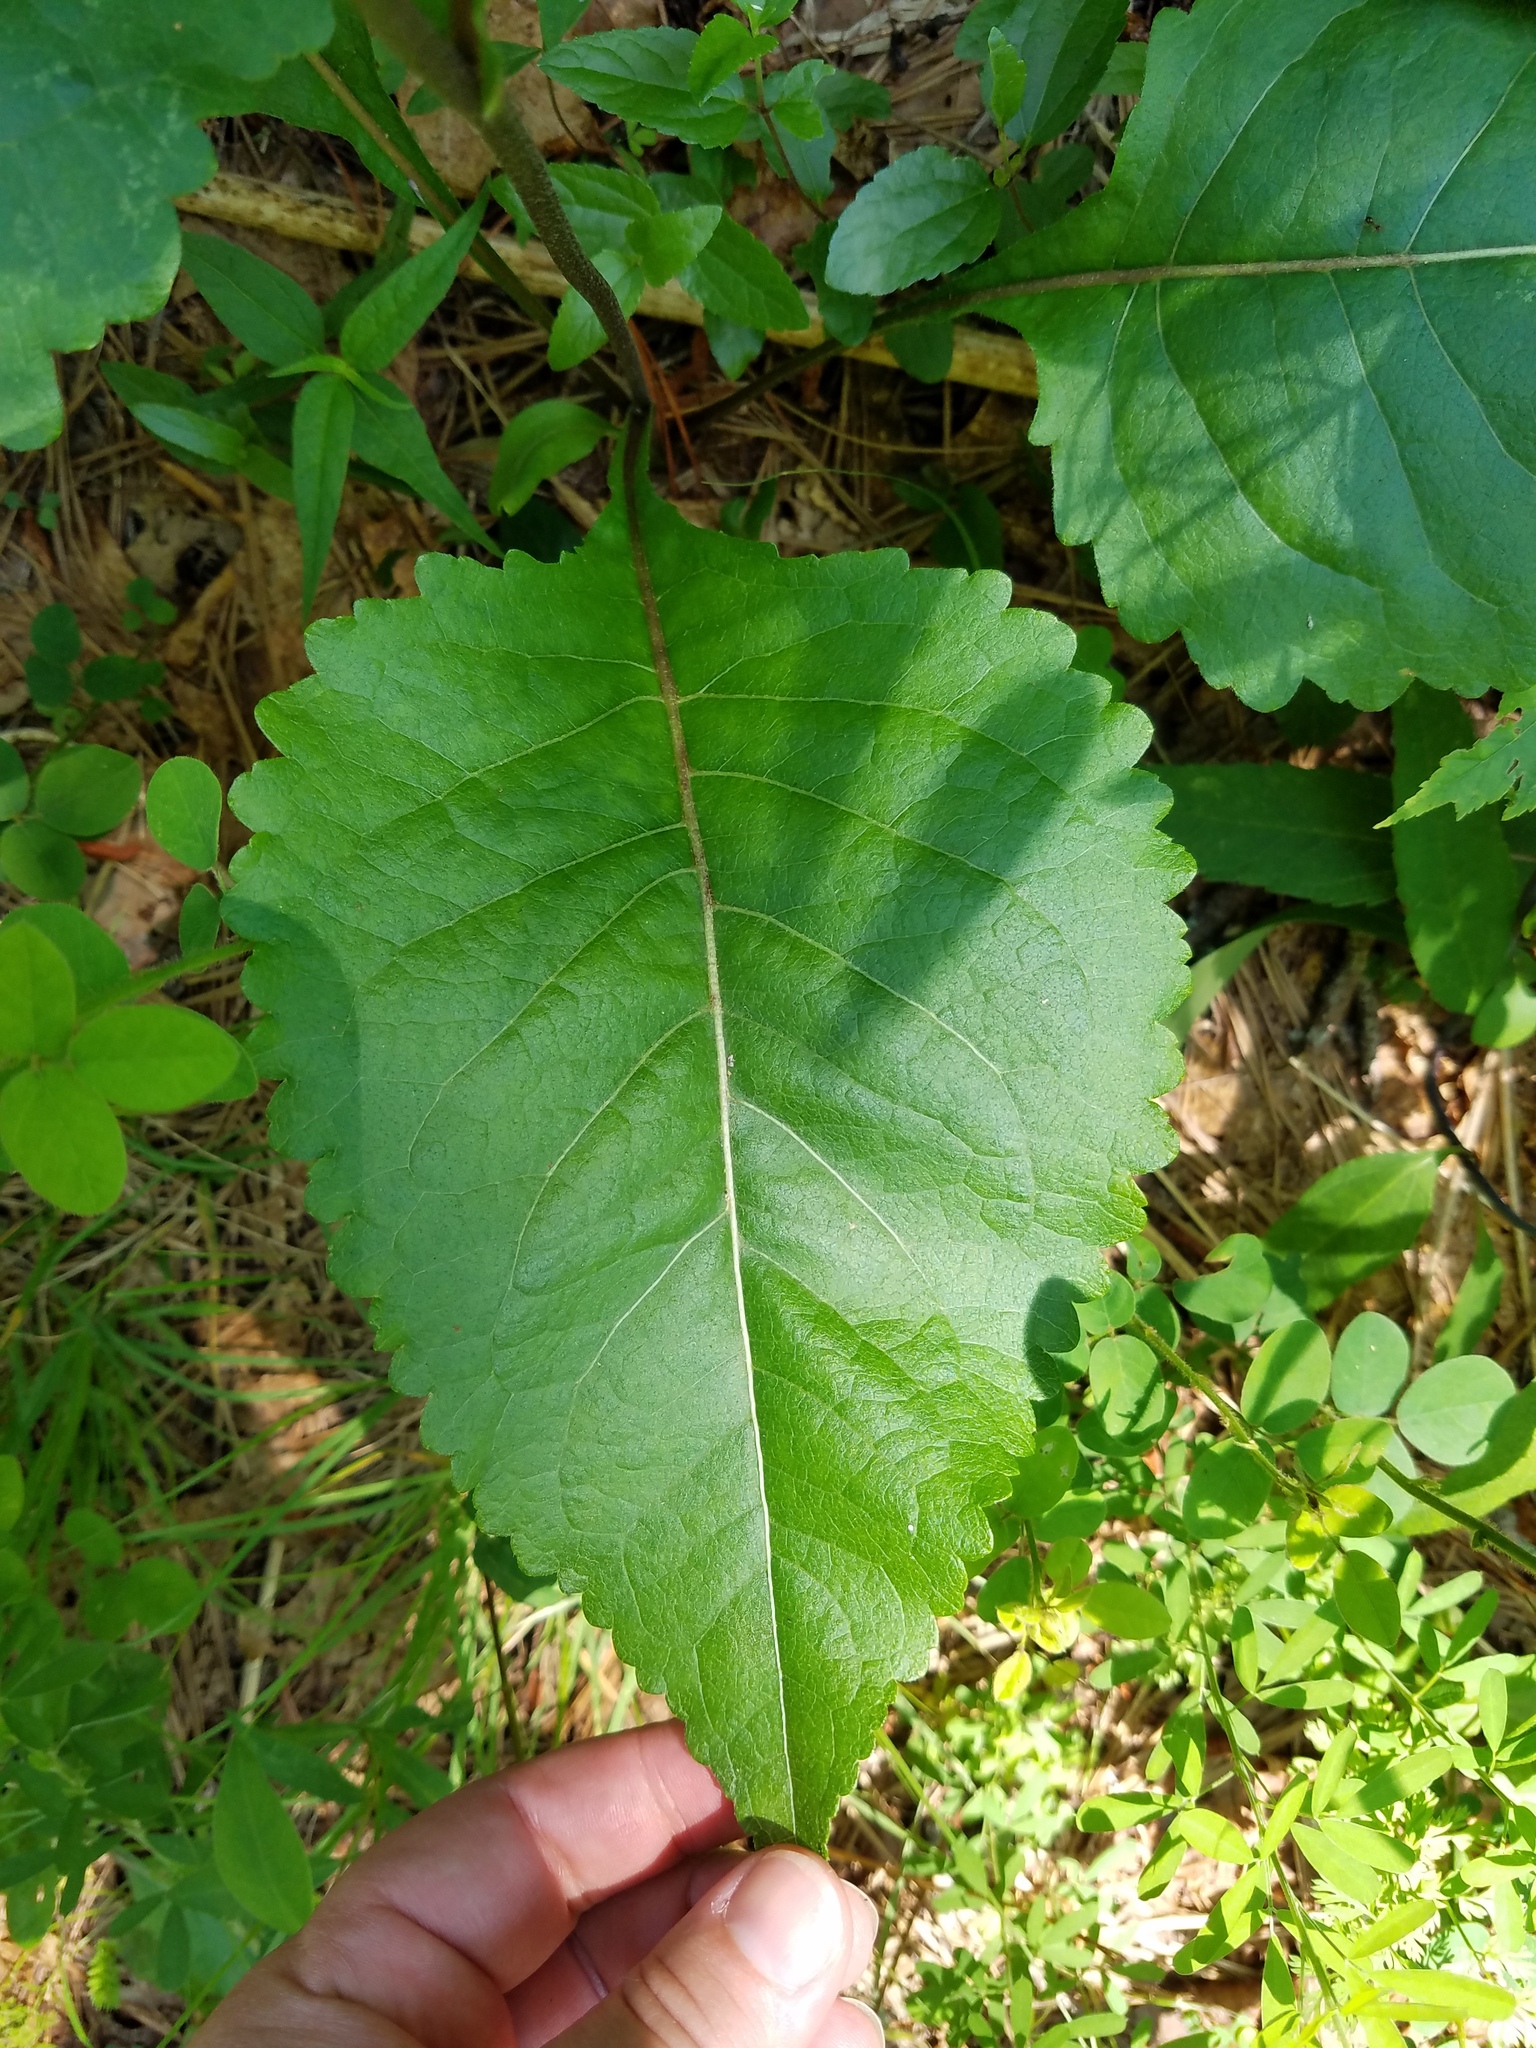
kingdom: Plantae
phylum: Tracheophyta
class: Magnoliopsida
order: Asterales
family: Asteraceae
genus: Parthenium
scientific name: Parthenium integrifolium
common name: American feverfew
